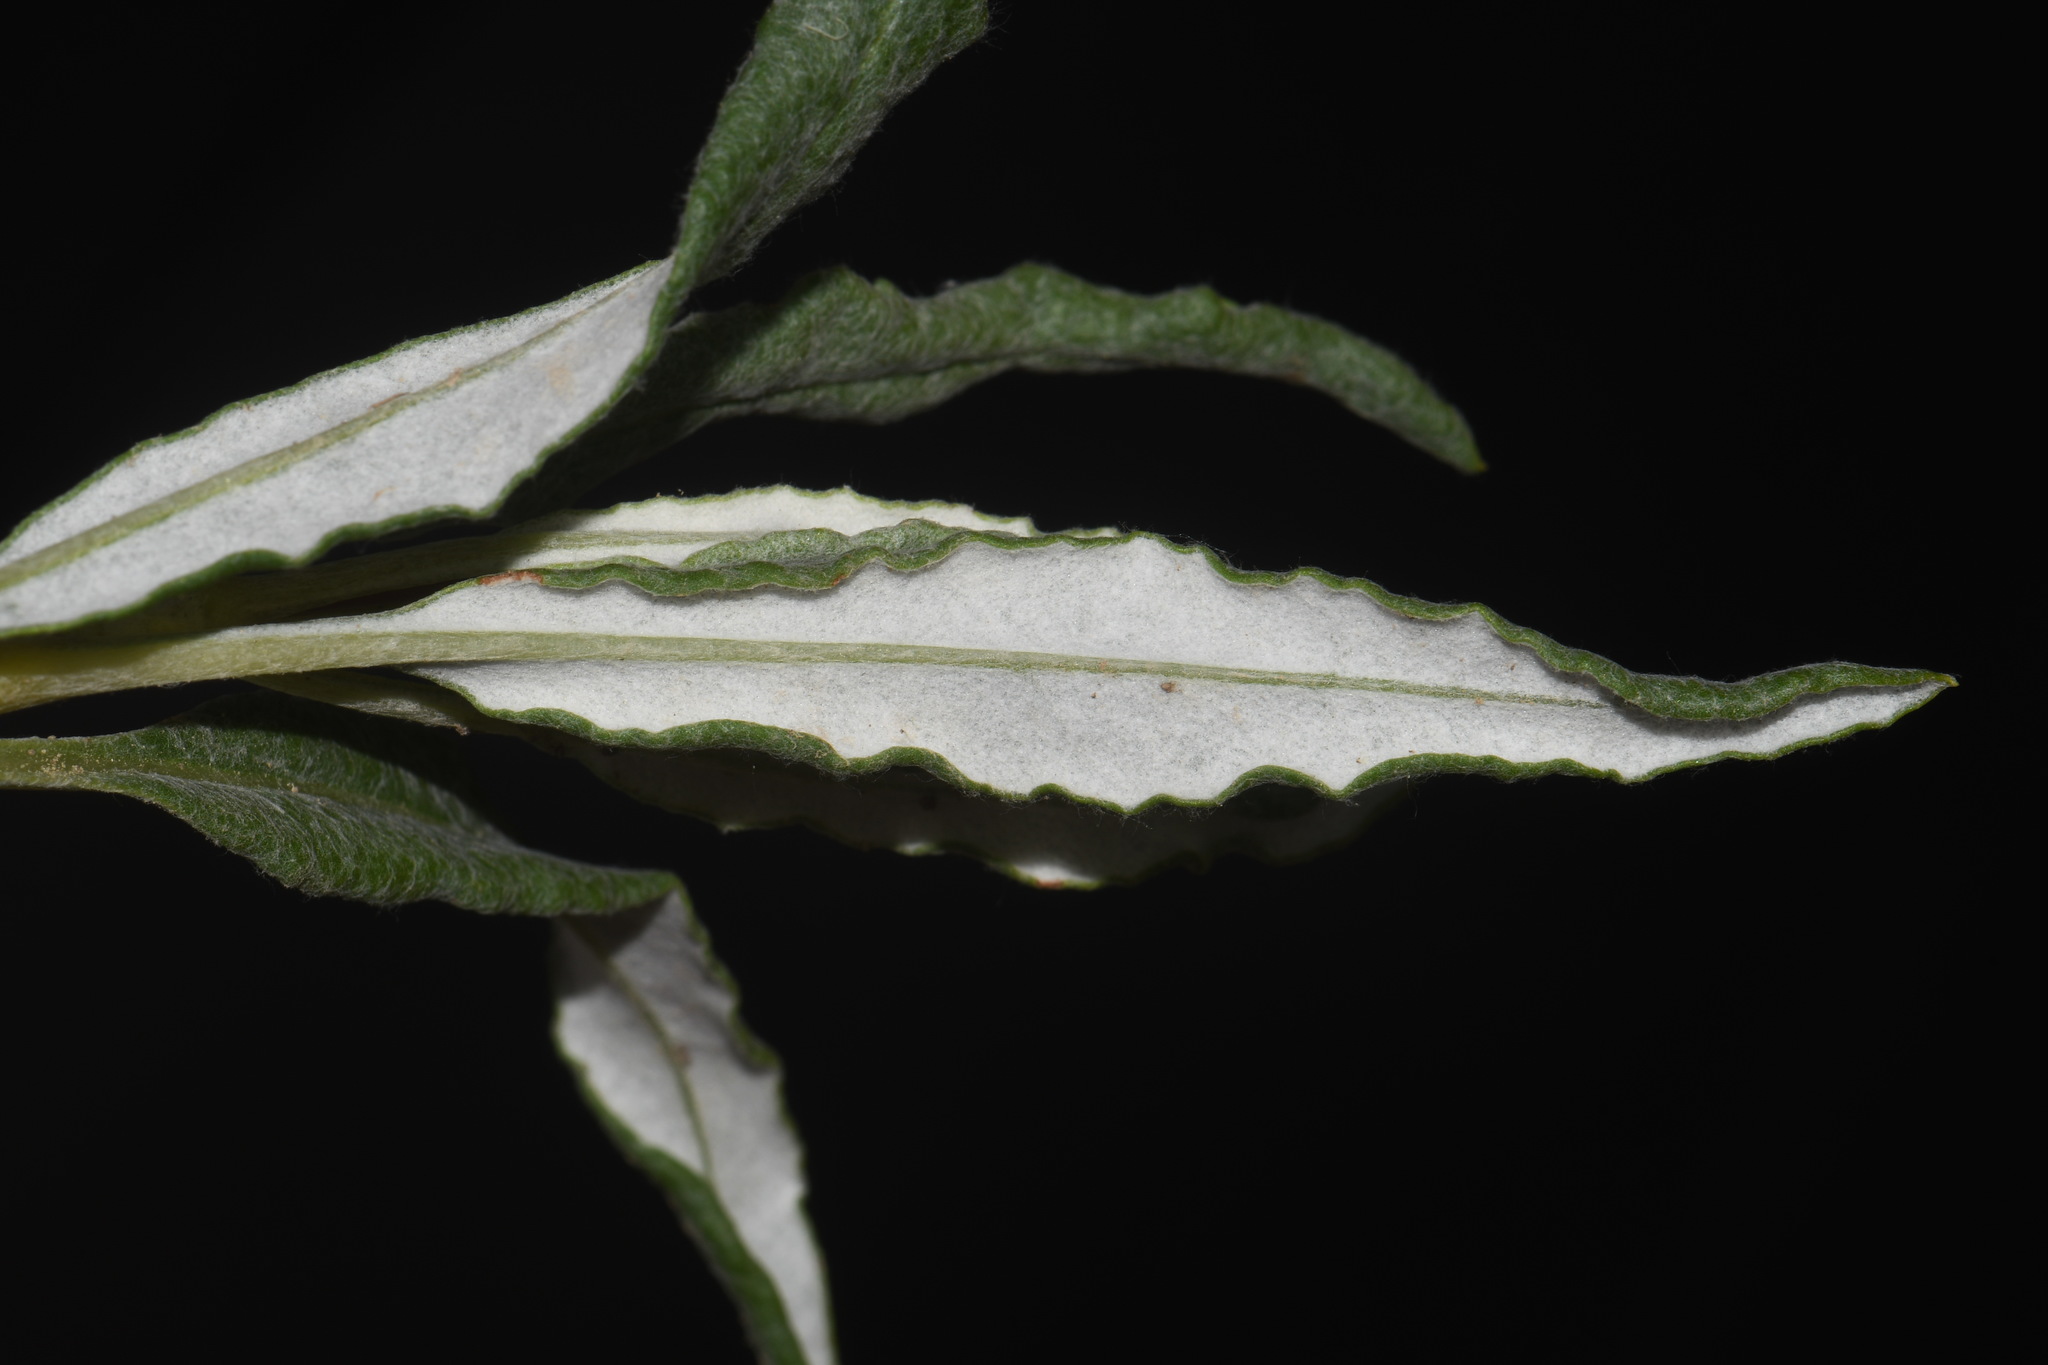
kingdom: Plantae
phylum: Tracheophyta
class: Magnoliopsida
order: Caryophyllales
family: Polygonaceae
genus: Eriogonum
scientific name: Eriogonum lonchophyllum
